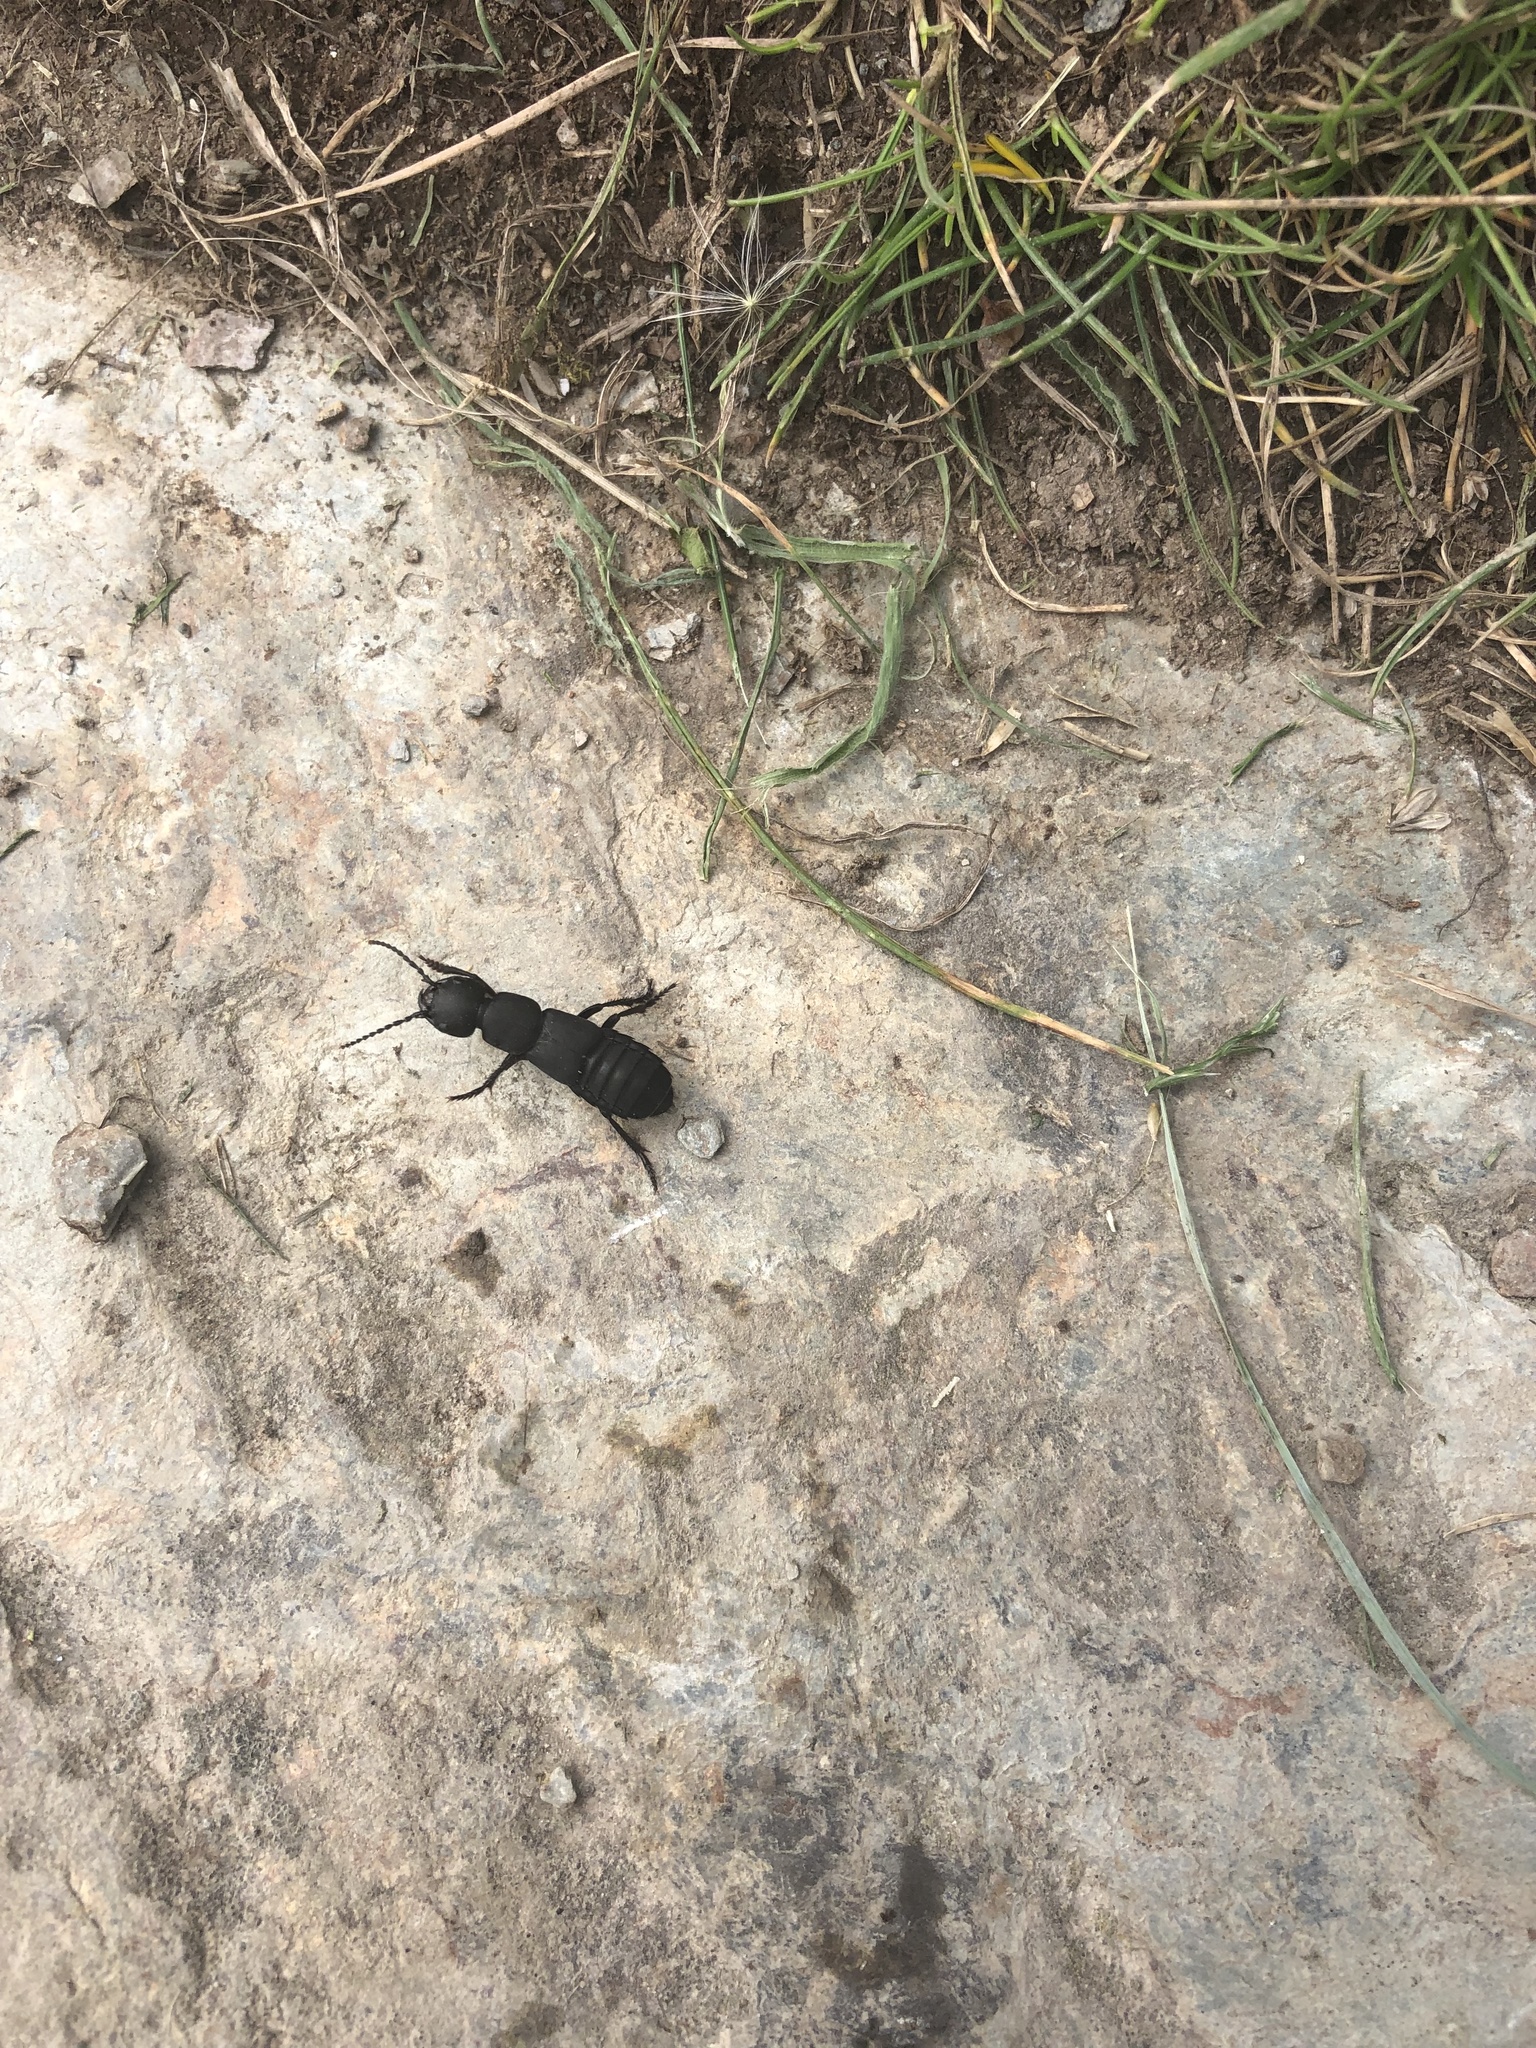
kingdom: Animalia
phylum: Arthropoda
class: Insecta
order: Coleoptera
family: Staphylinidae
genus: Ocypus
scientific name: Ocypus olens
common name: Devil's coach-horse
